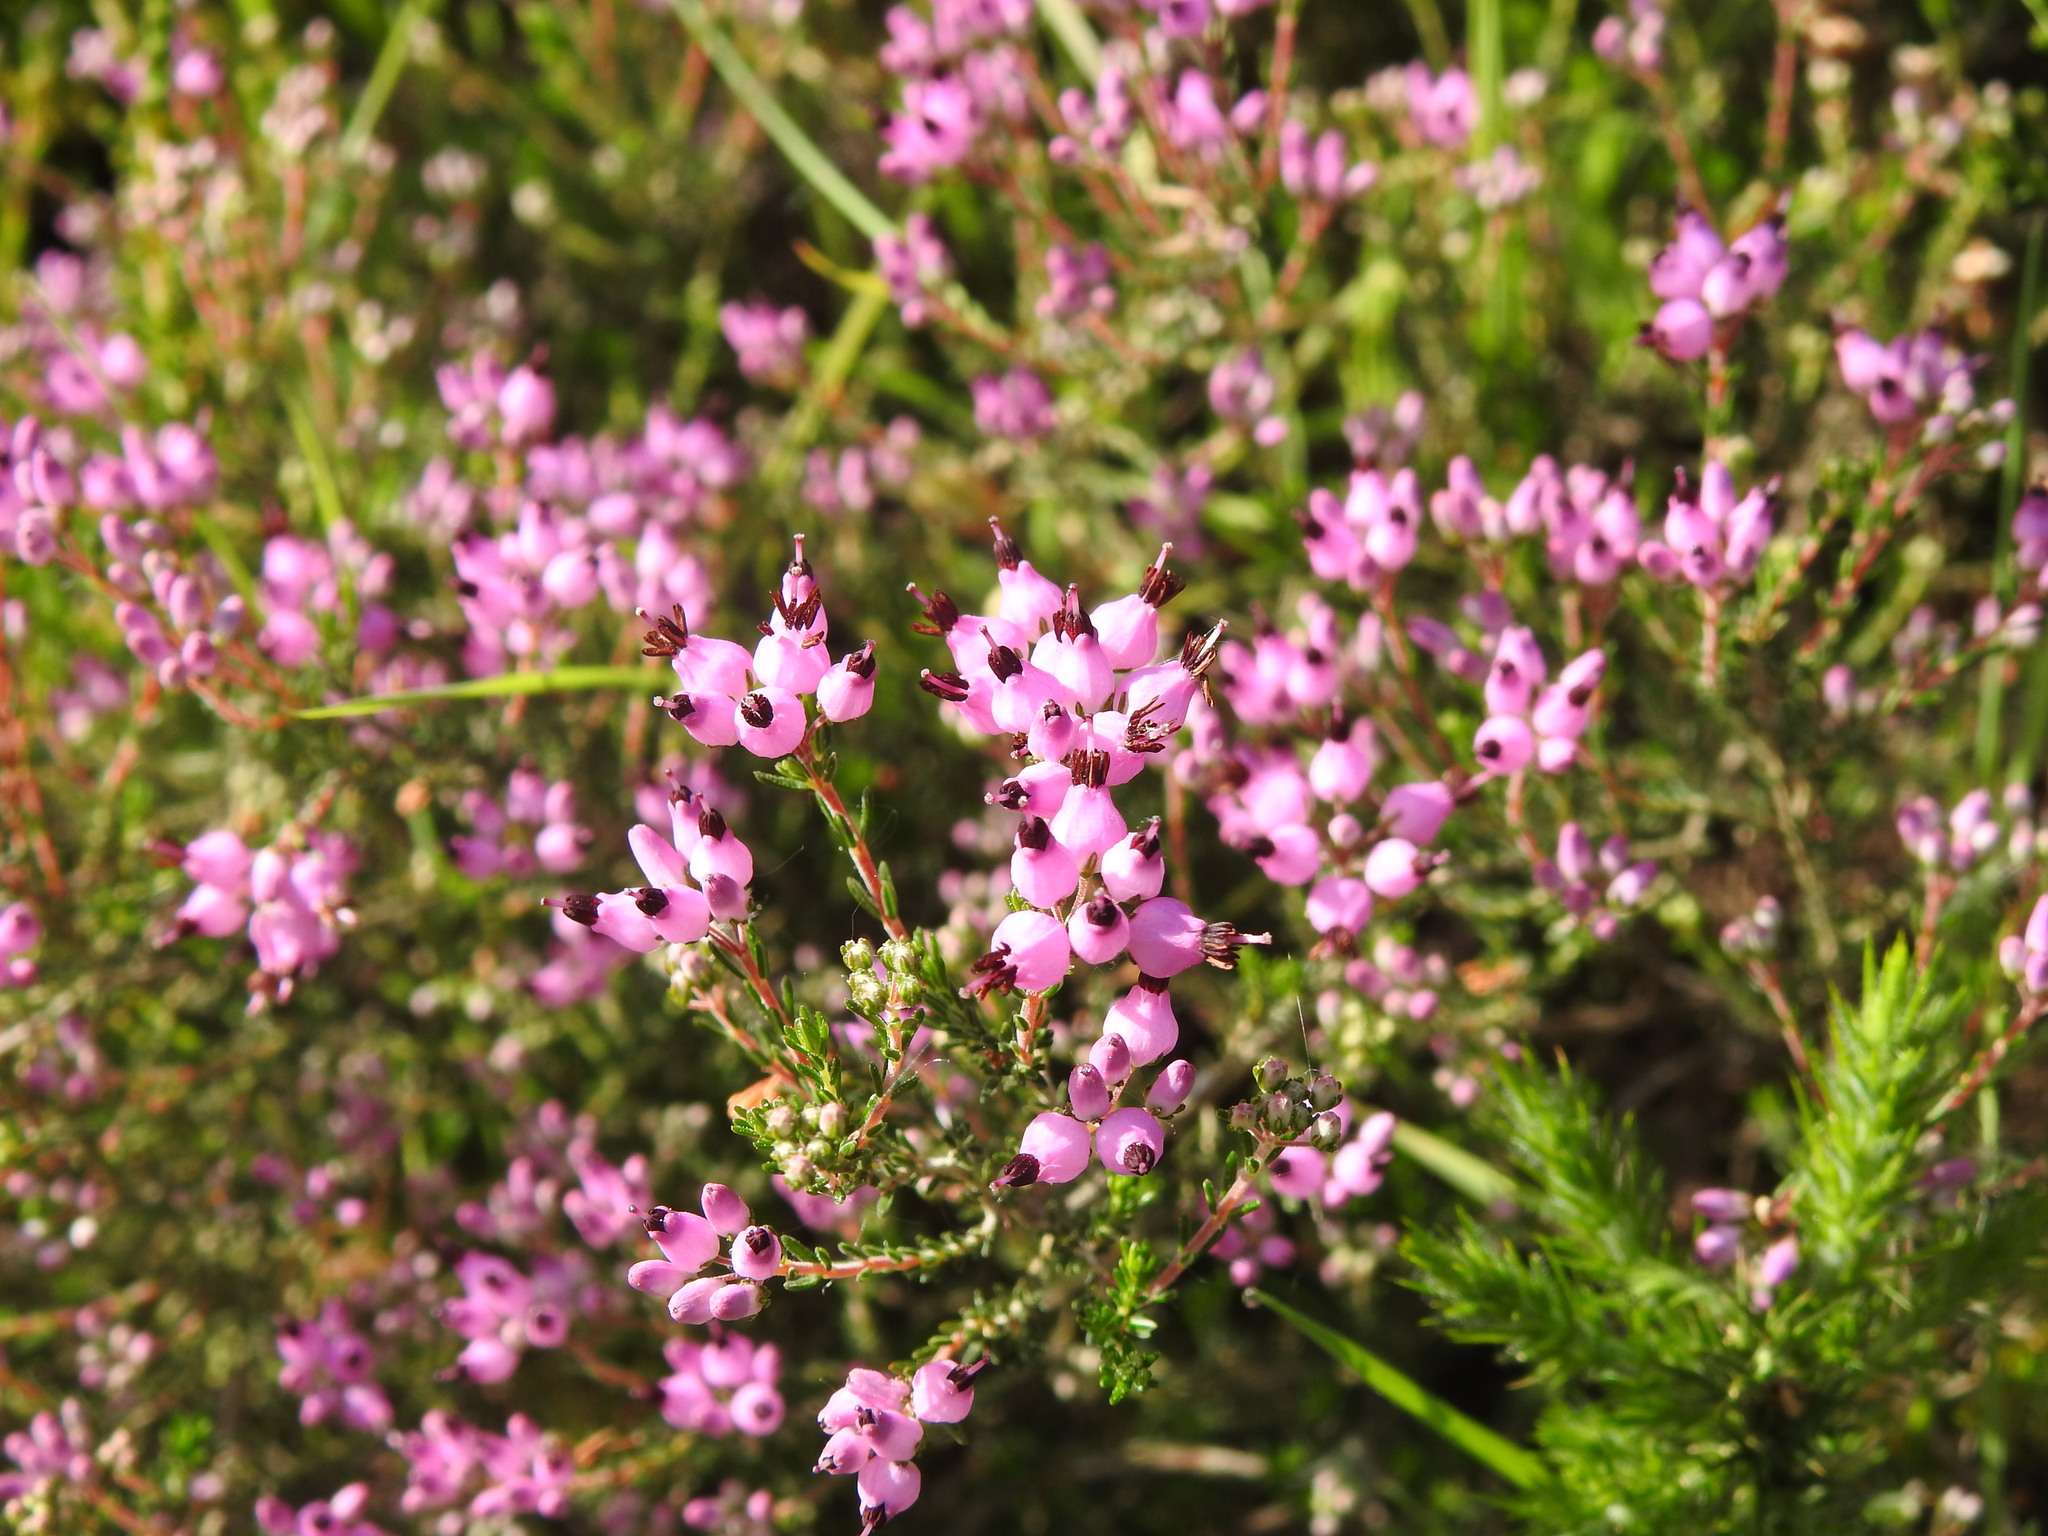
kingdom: Plantae
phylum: Tracheophyta
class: Magnoliopsida
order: Ericales
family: Ericaceae
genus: Erica
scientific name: Erica umbellata
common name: Dwarf spanish heath
